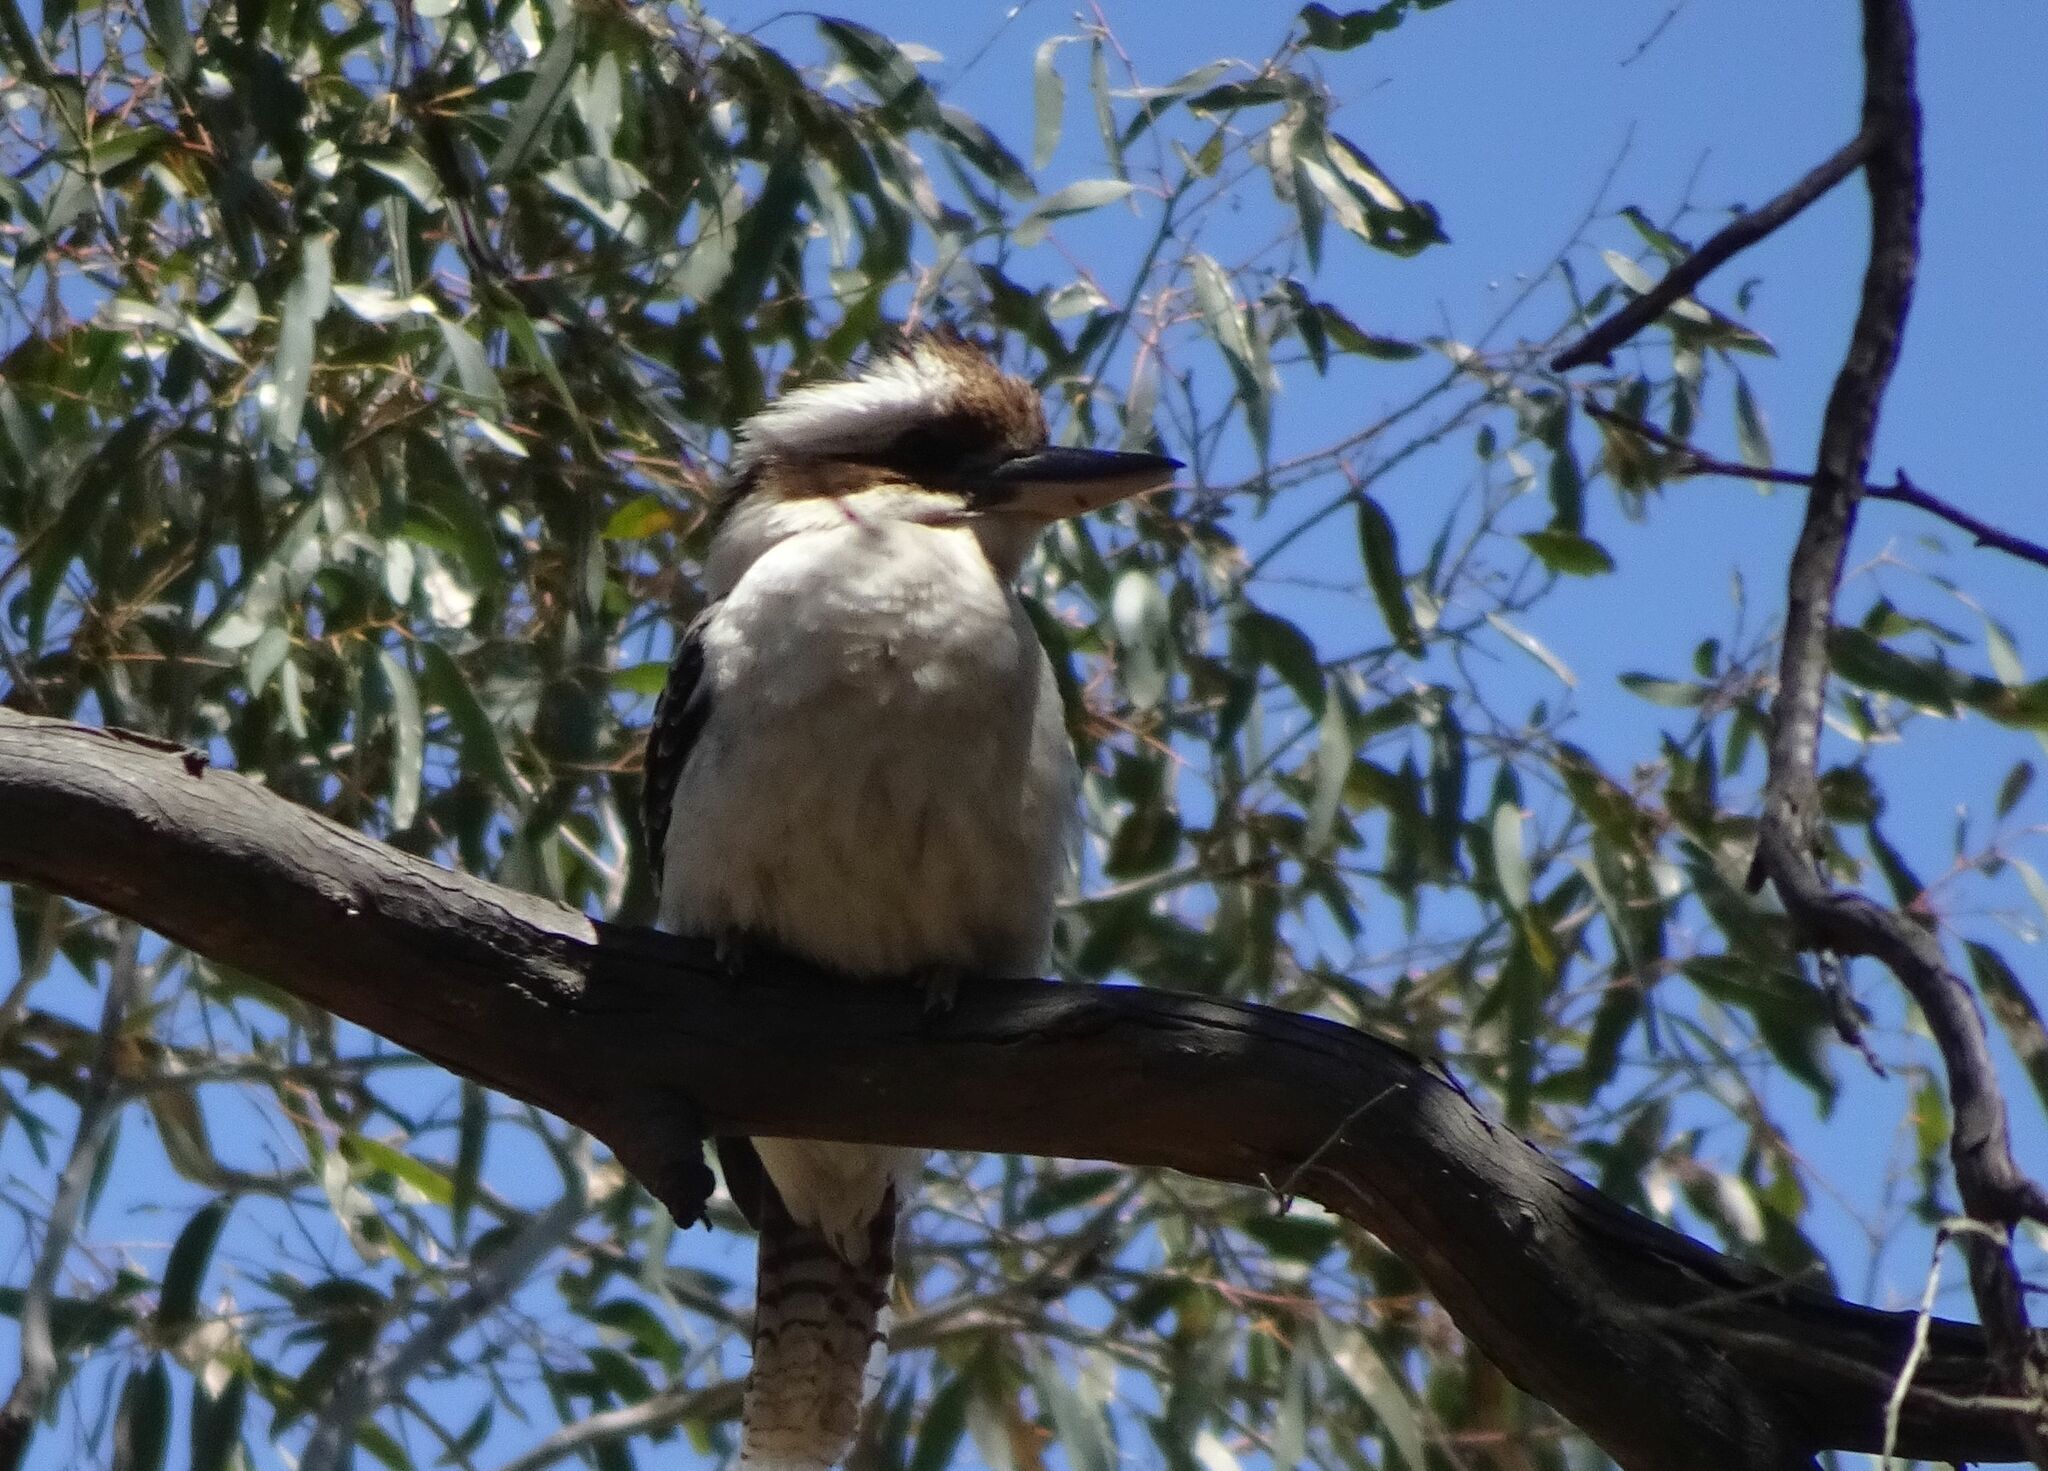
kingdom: Animalia
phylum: Chordata
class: Aves
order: Coraciiformes
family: Alcedinidae
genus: Dacelo
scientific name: Dacelo novaeguineae
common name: Laughing kookaburra
